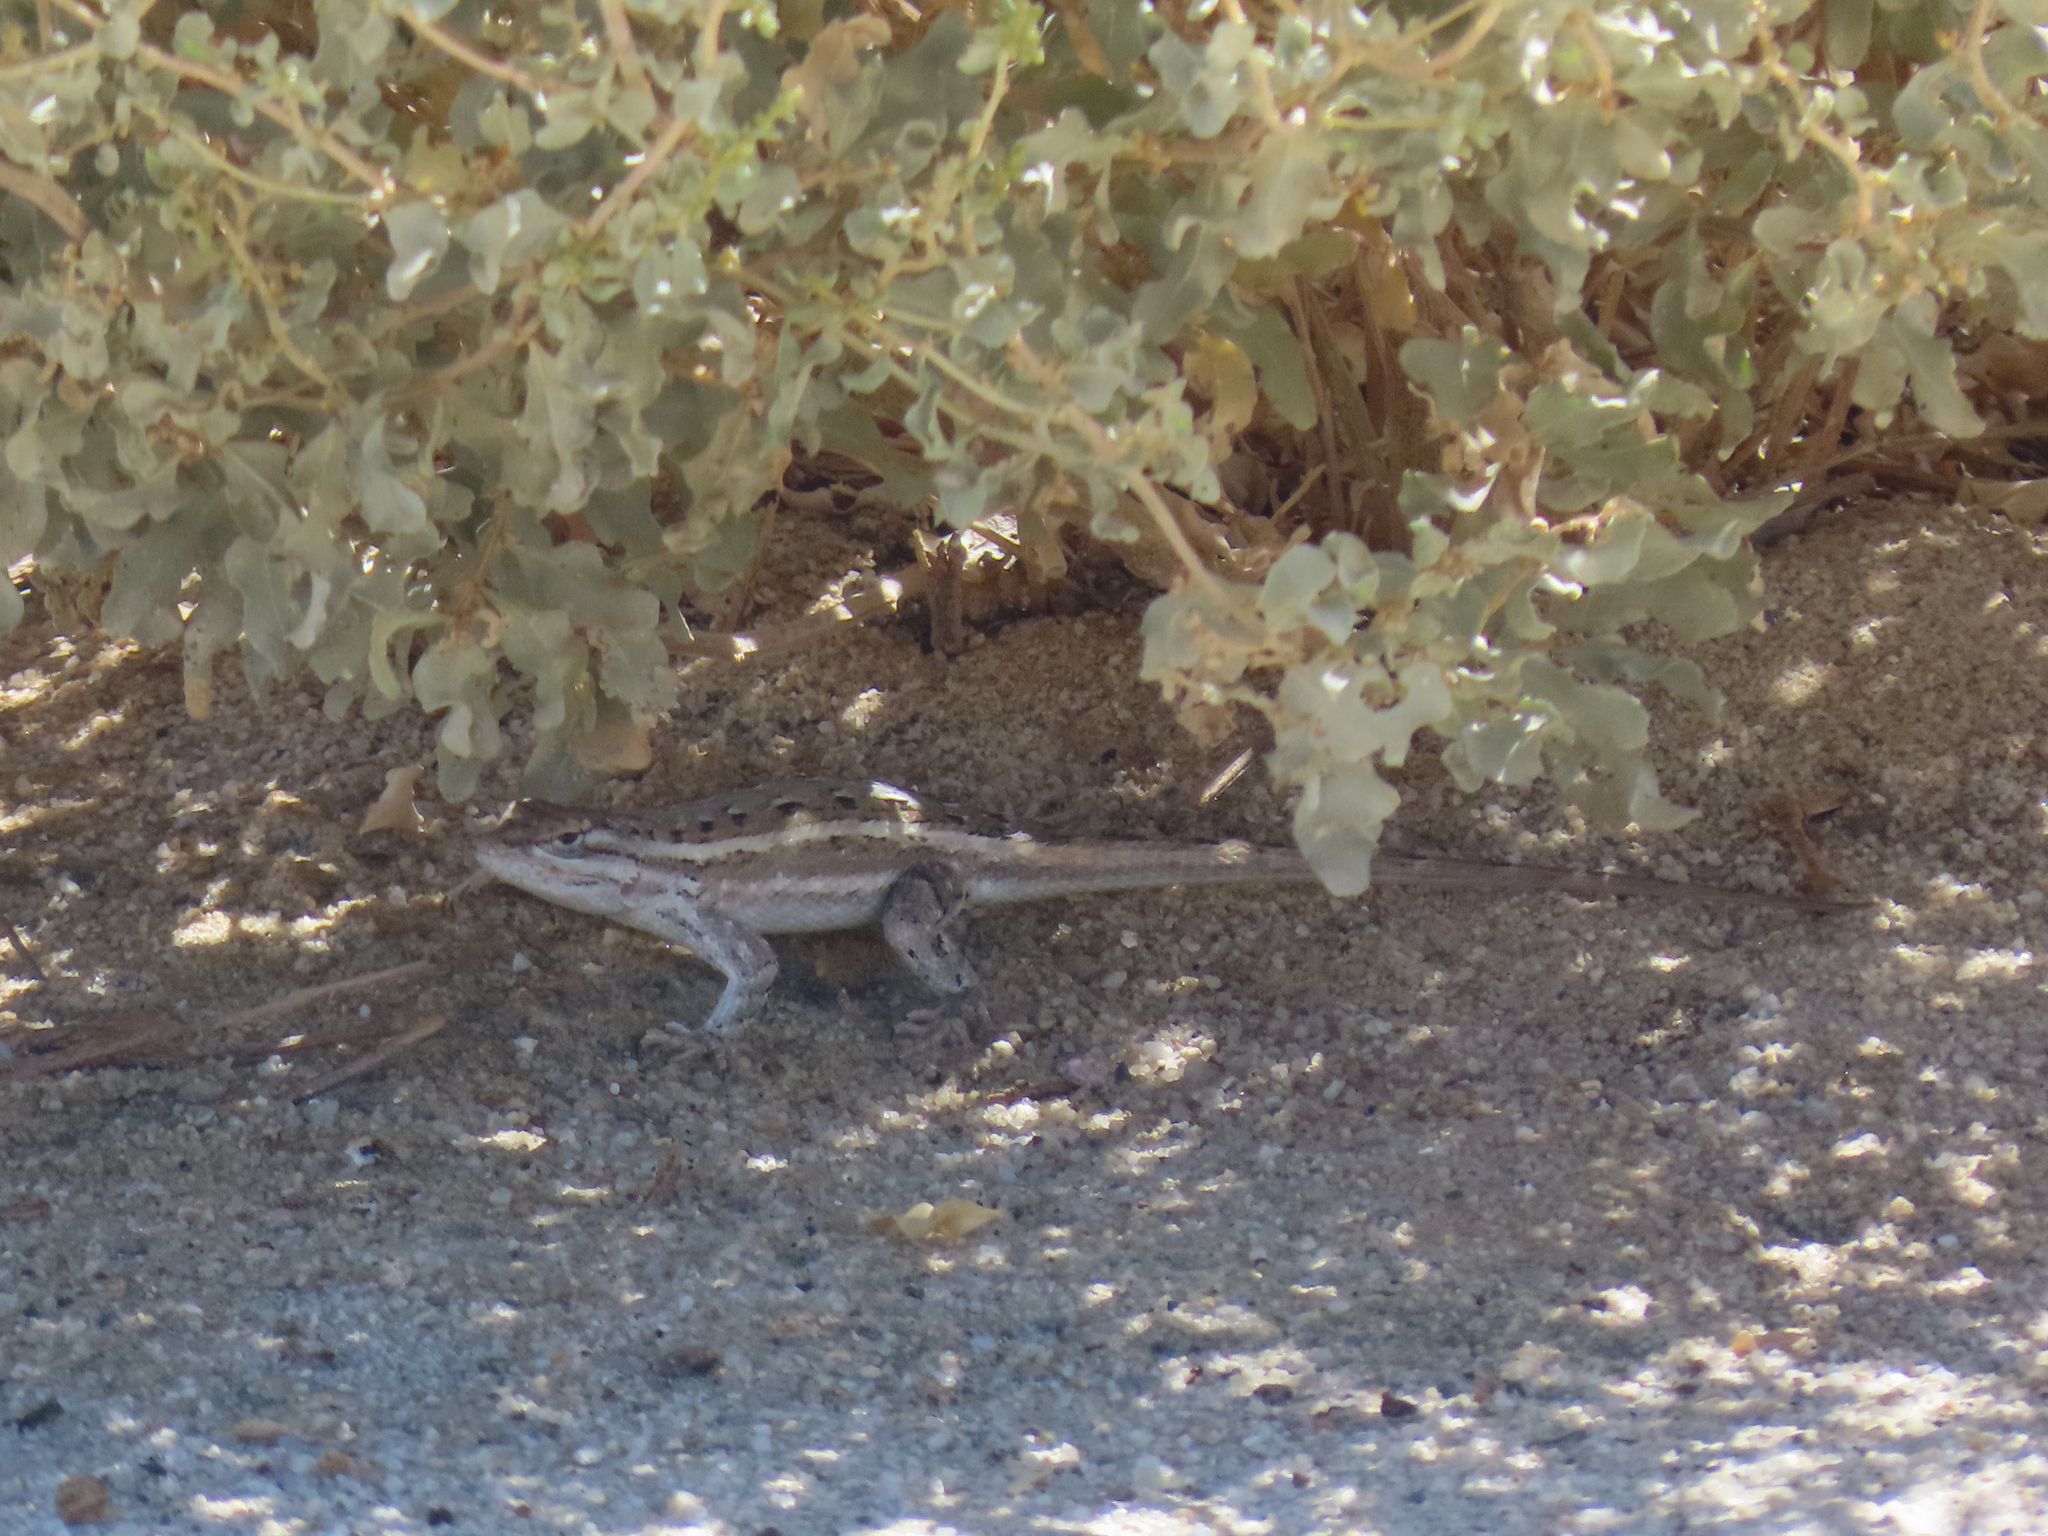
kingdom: Animalia
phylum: Chordata
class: Squamata
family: Phrynosomatidae
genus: Sceloporus
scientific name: Sceloporus cowlesi
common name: White sands prairie lizard
